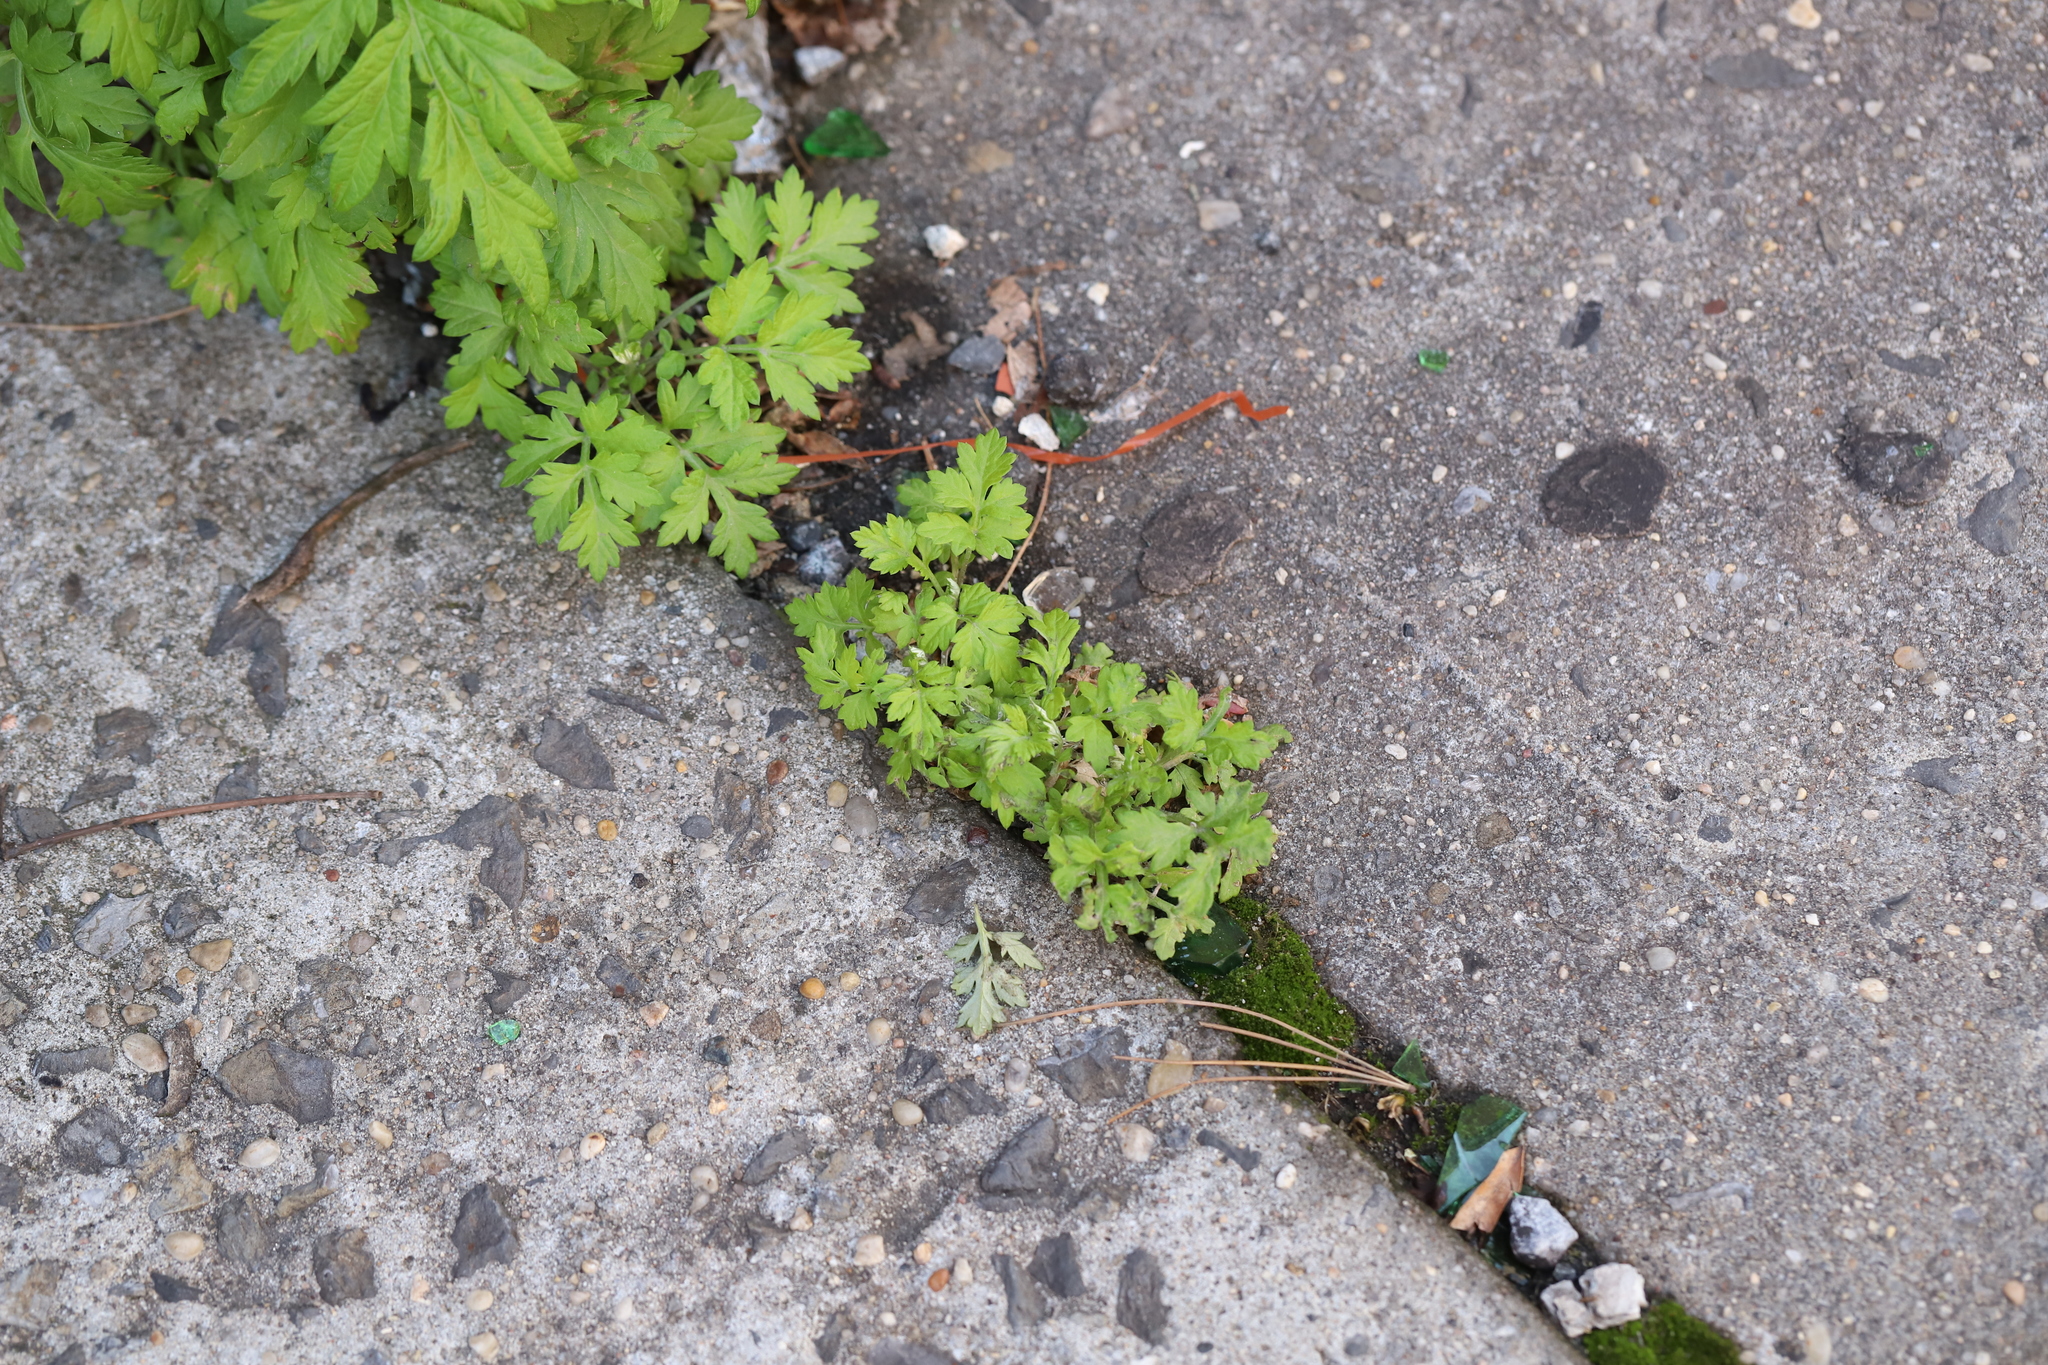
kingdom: Plantae
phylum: Tracheophyta
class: Magnoliopsida
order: Asterales
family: Asteraceae
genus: Artemisia
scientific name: Artemisia vulgaris
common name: Mugwort
